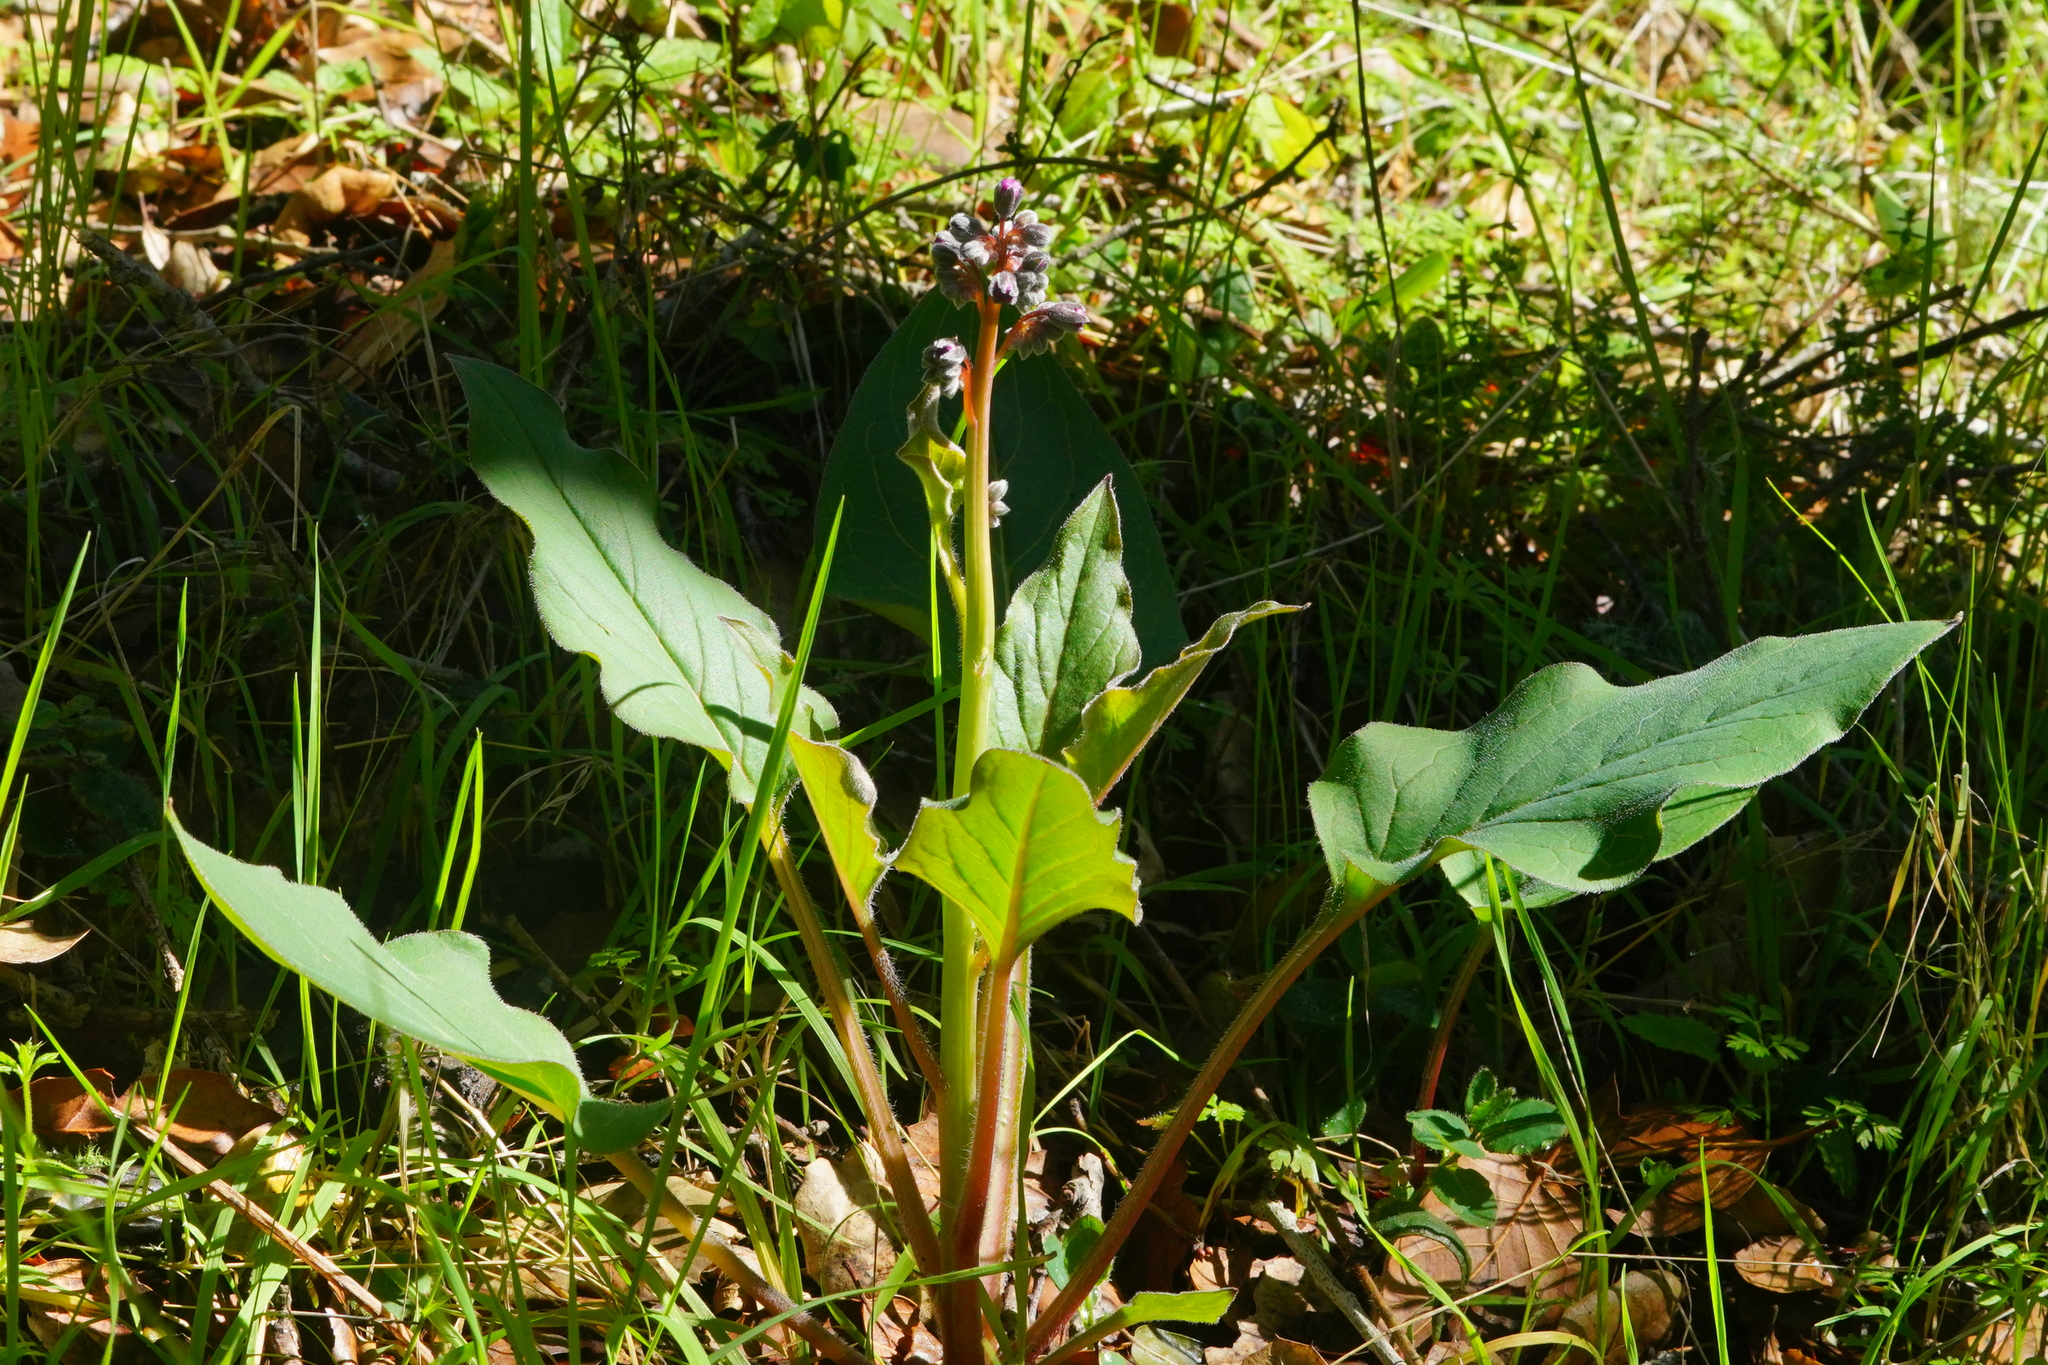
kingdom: Plantae
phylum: Tracheophyta
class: Magnoliopsida
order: Boraginales
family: Boraginaceae
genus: Adelinia
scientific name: Adelinia grande
